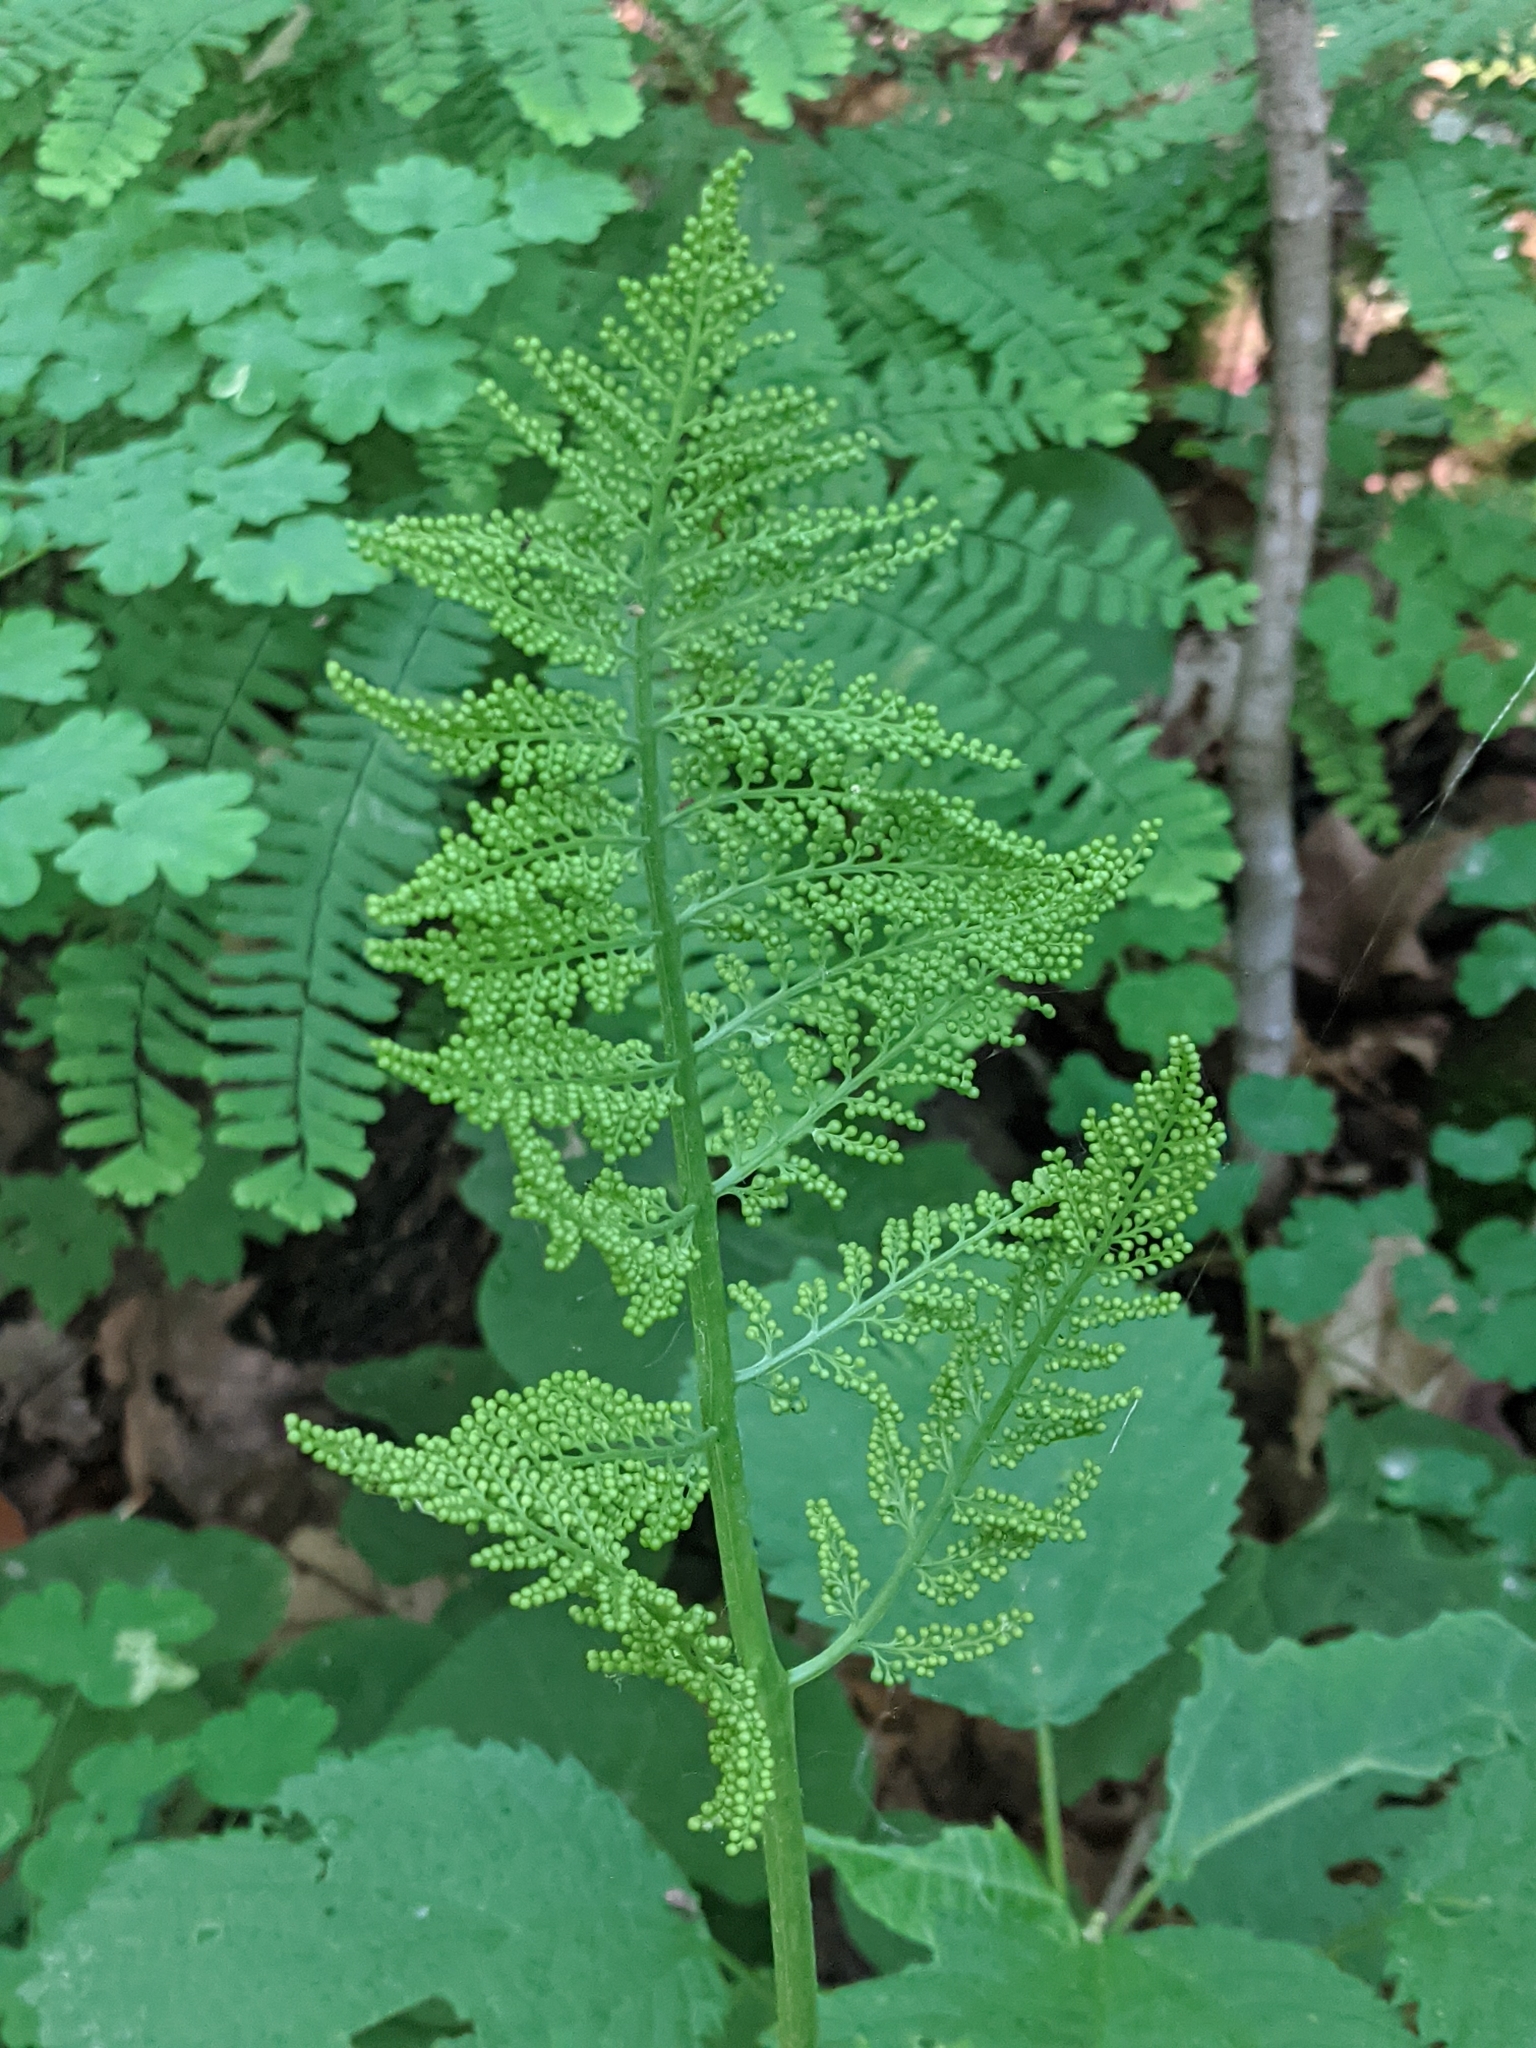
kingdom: Plantae
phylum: Tracheophyta
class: Polypodiopsida
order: Ophioglossales
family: Ophioglossaceae
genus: Botrypus
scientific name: Botrypus virginianus
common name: Common grapefern
